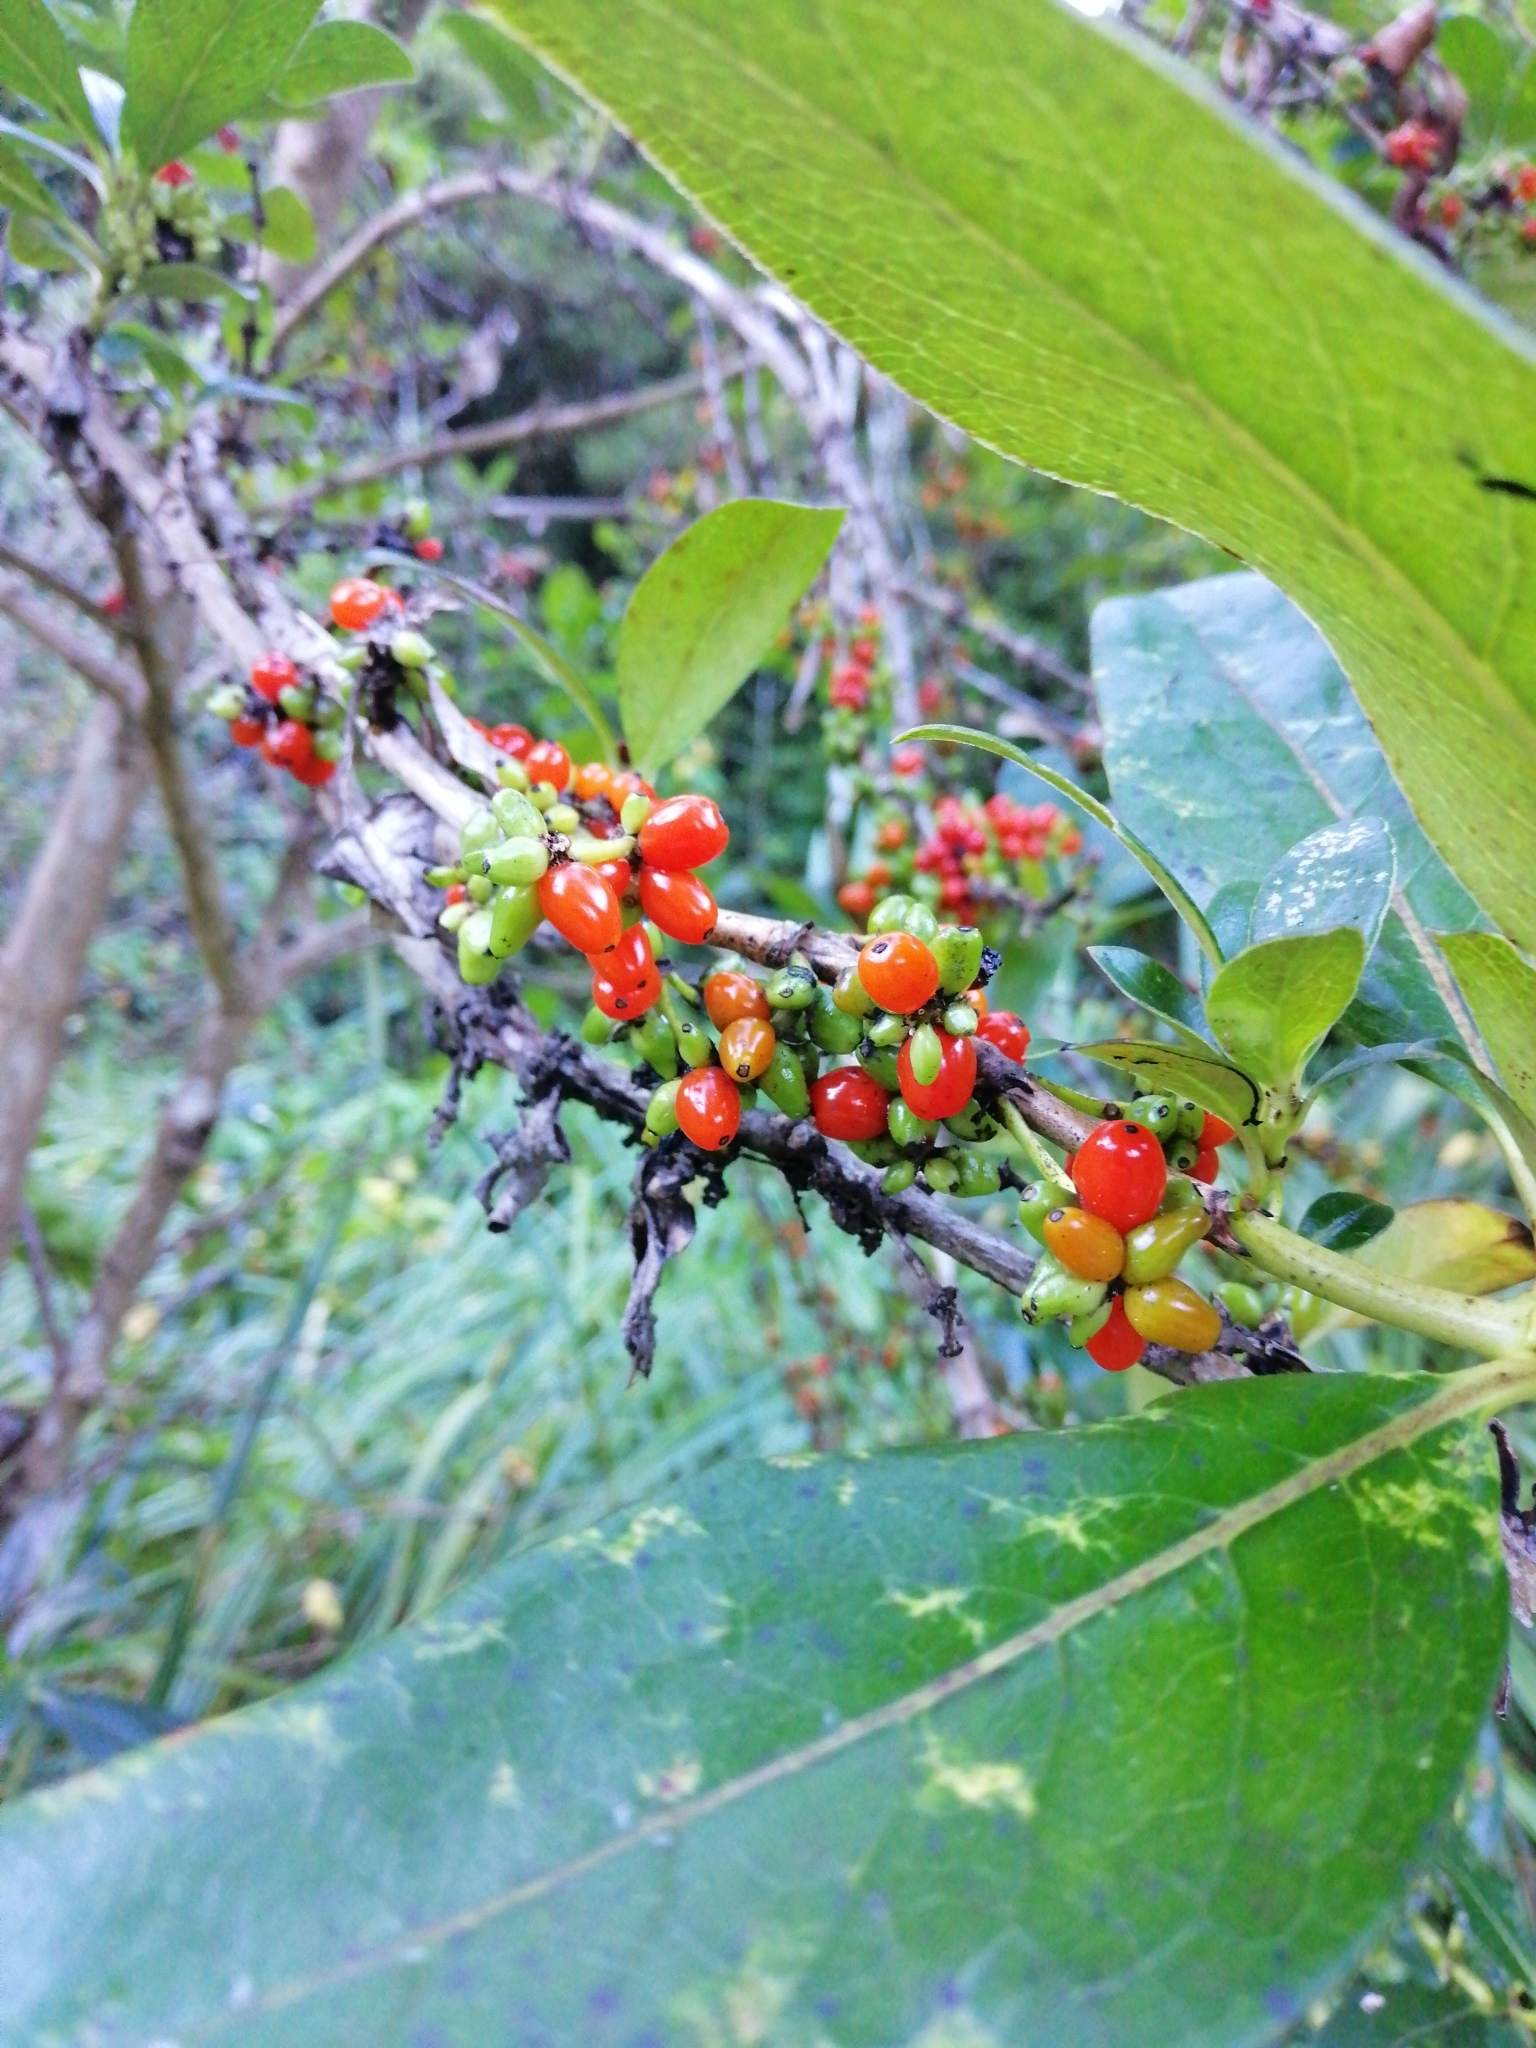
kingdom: Plantae
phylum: Tracheophyta
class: Magnoliopsida
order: Gentianales
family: Rubiaceae
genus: Coprosma
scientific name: Coprosma robusta
